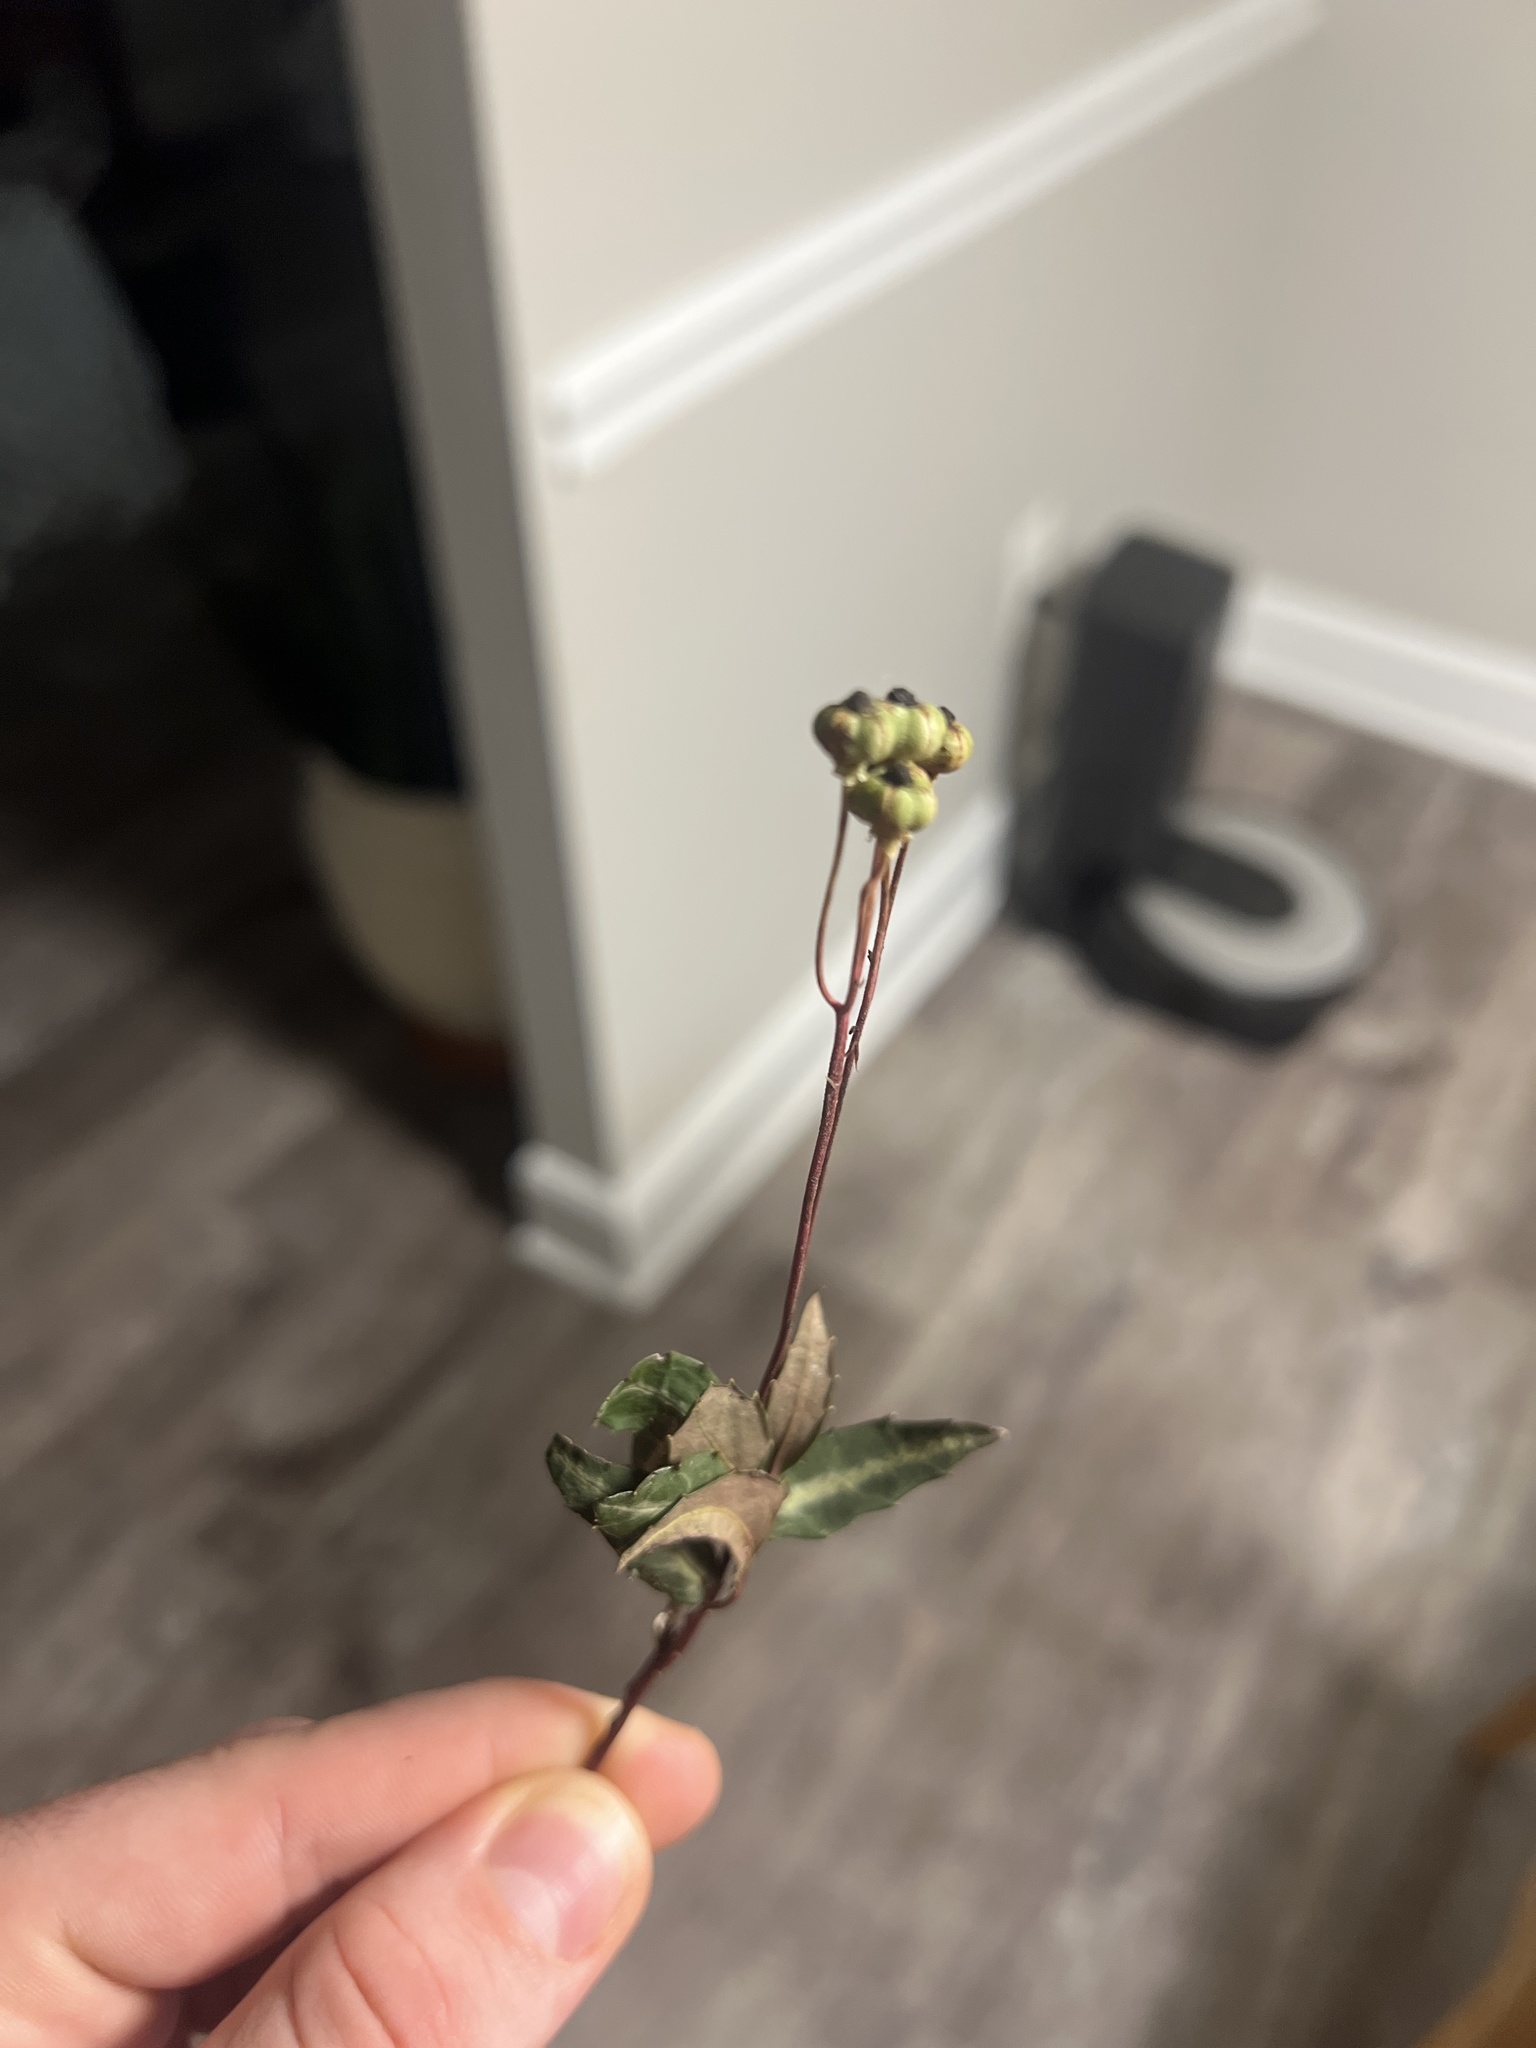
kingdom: Plantae
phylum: Tracheophyta
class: Magnoliopsida
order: Ericales
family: Ericaceae
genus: Chimaphila
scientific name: Chimaphila maculata
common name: Spotted pipsissewa
